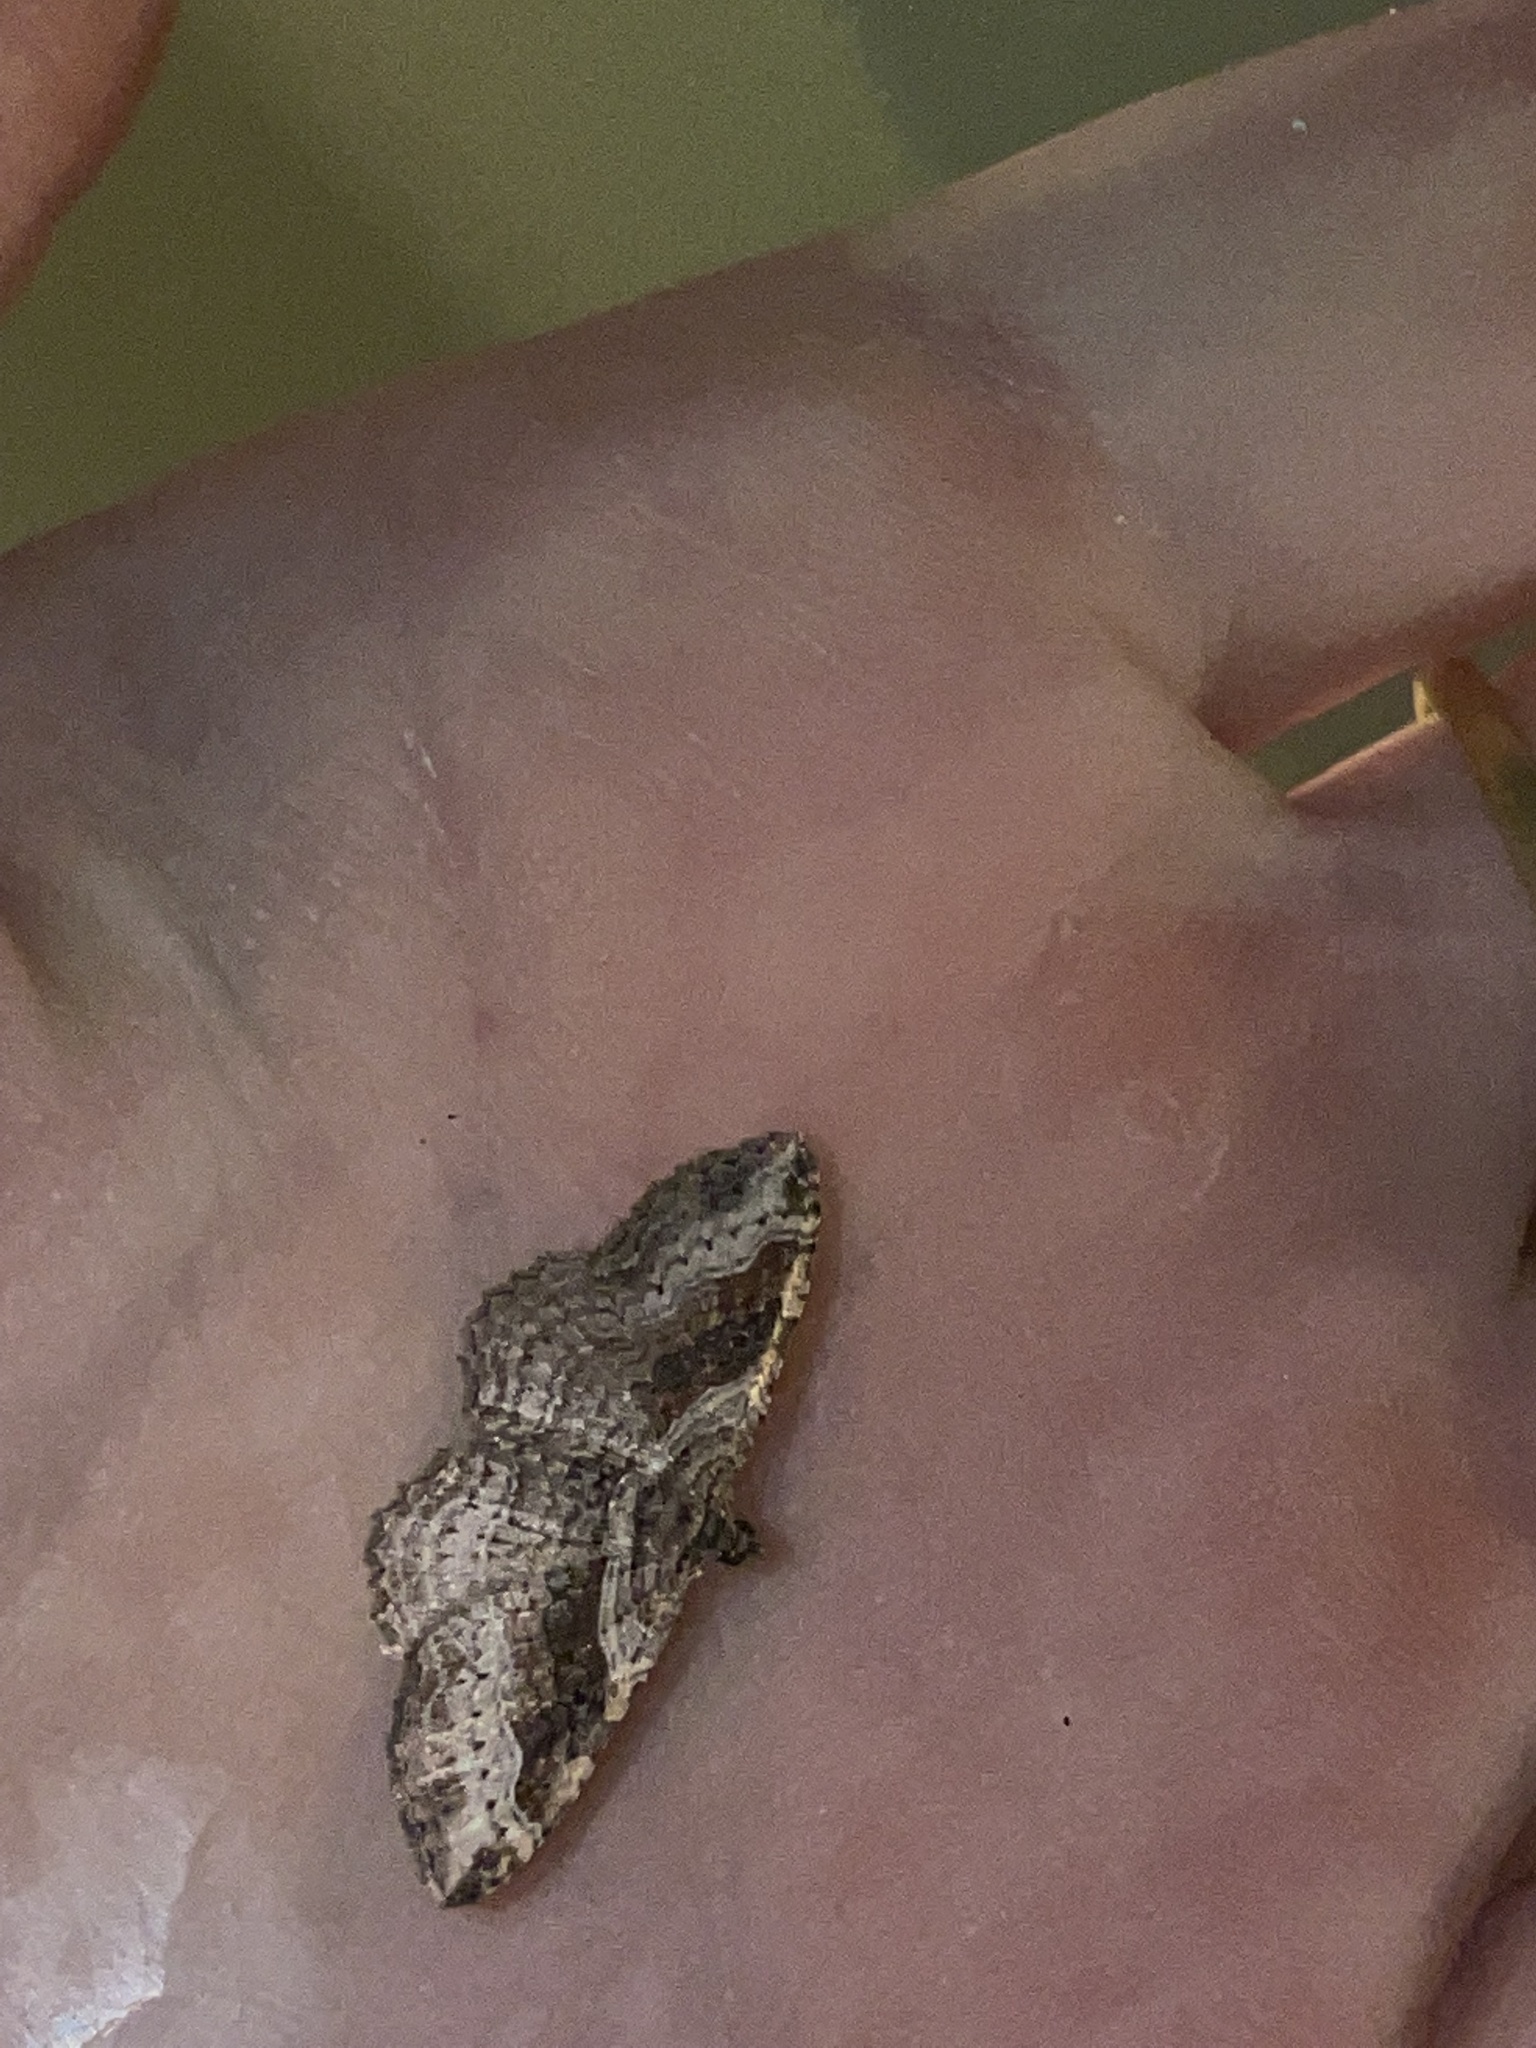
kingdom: Animalia
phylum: Arthropoda
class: Insecta
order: Lepidoptera
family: Geometridae
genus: Costaconvexa
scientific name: Costaconvexa centrostrigaria
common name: Bent-line carpet
